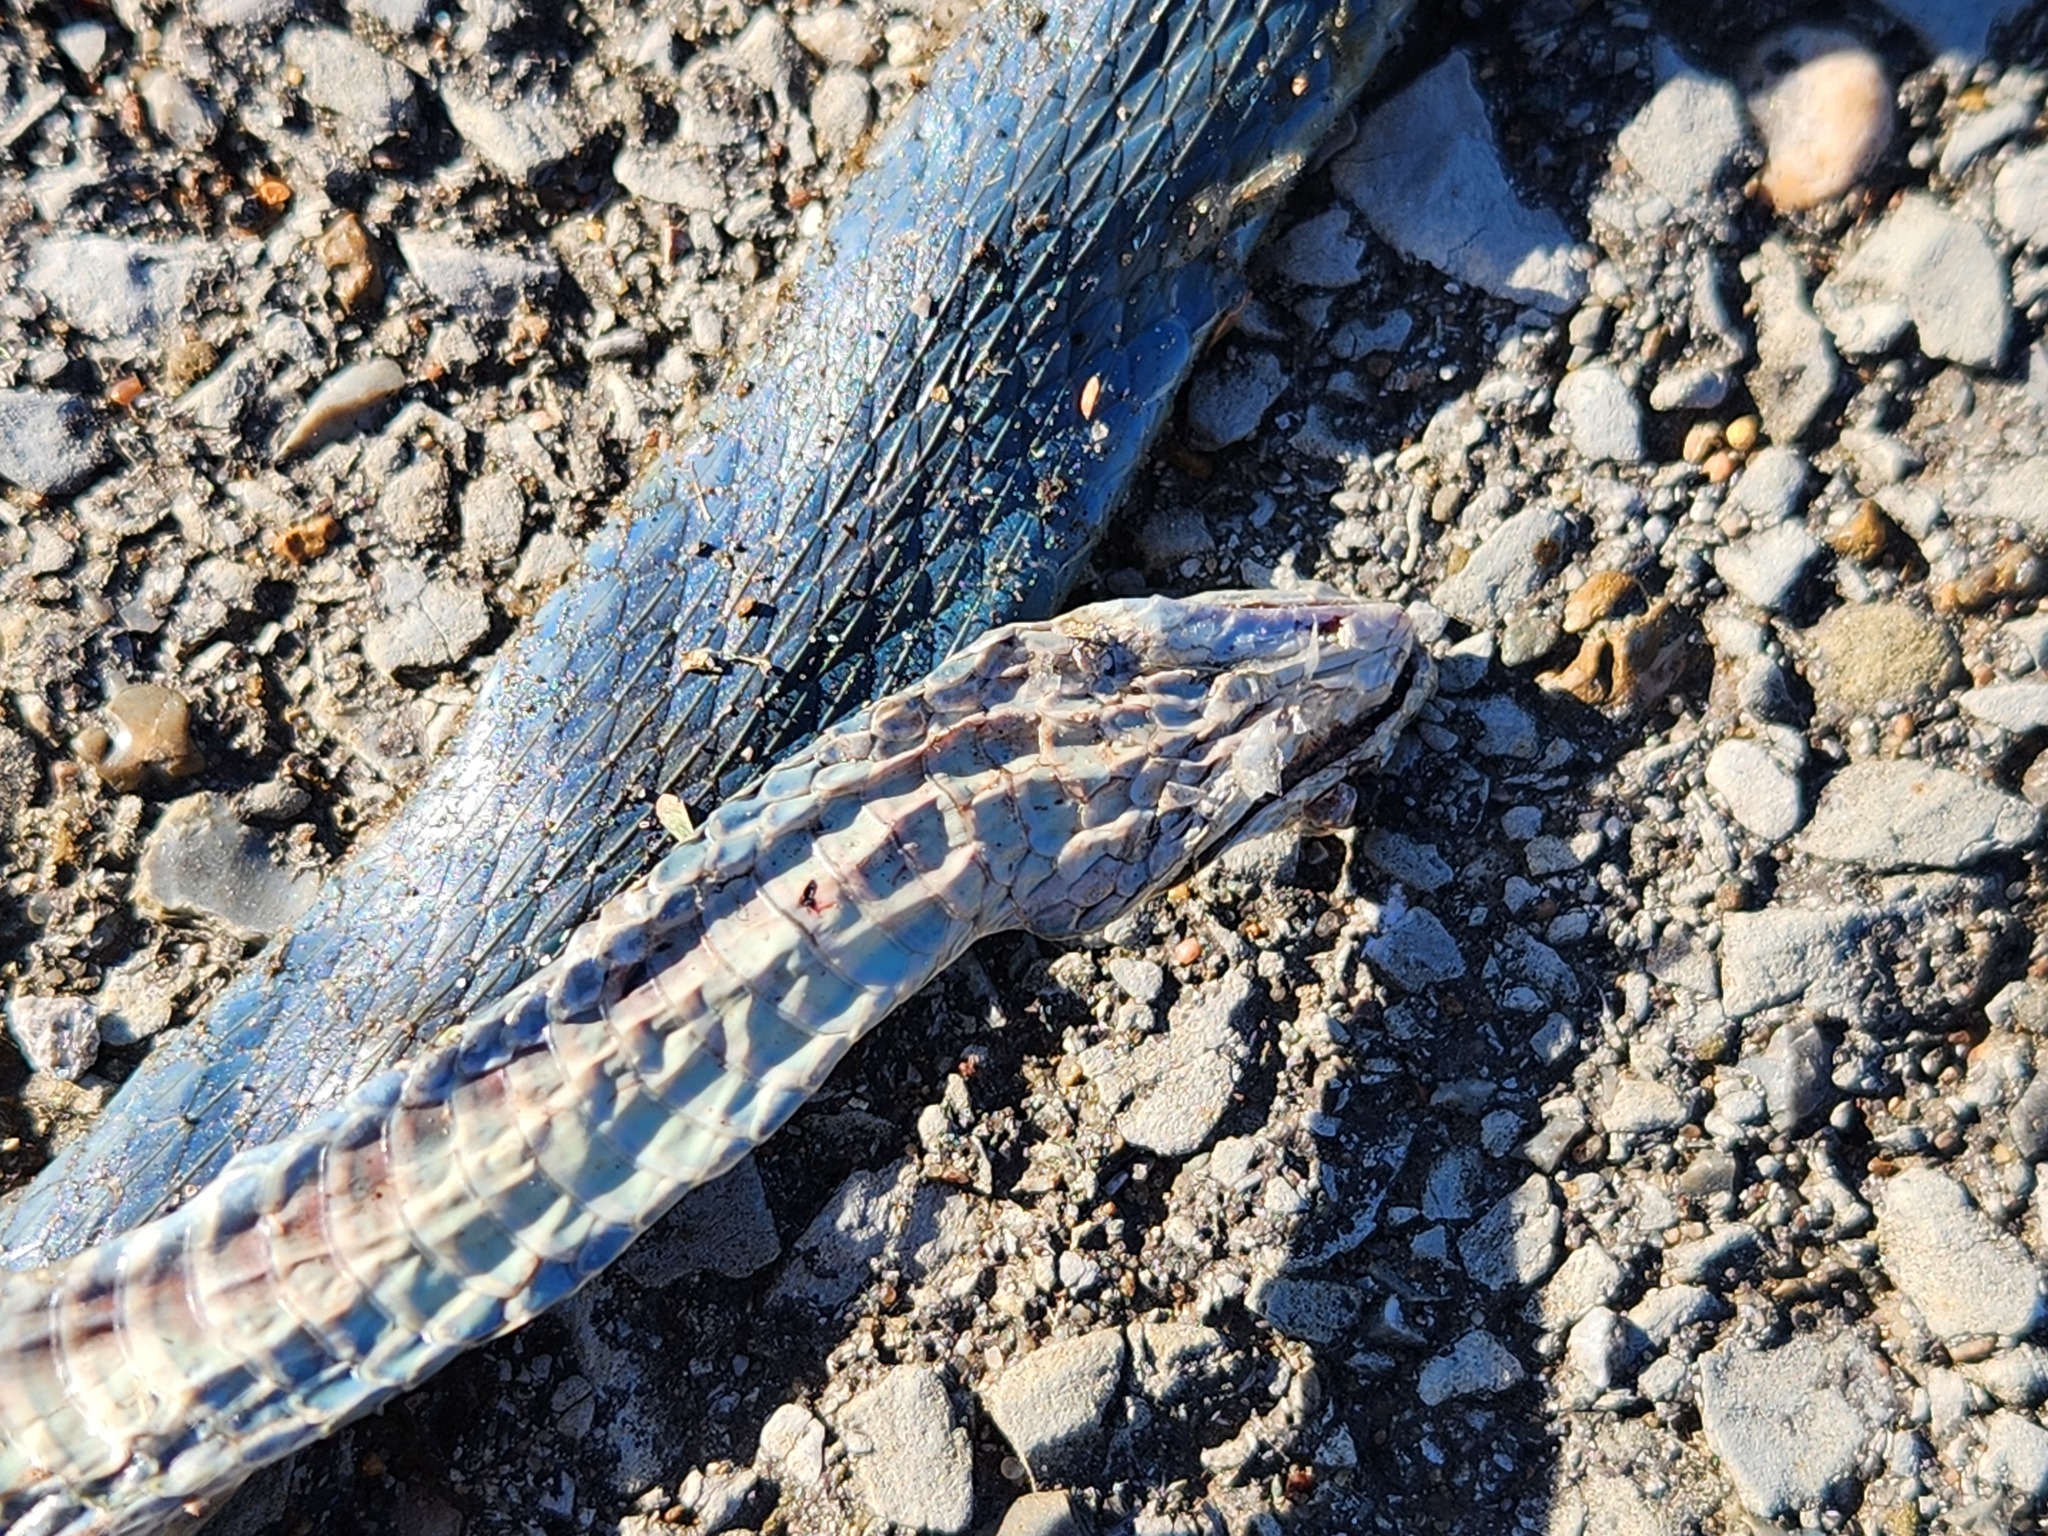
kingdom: Animalia
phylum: Chordata
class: Squamata
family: Colubridae
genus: Opheodrys
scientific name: Opheodrys aestivus
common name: Rough greensnake
